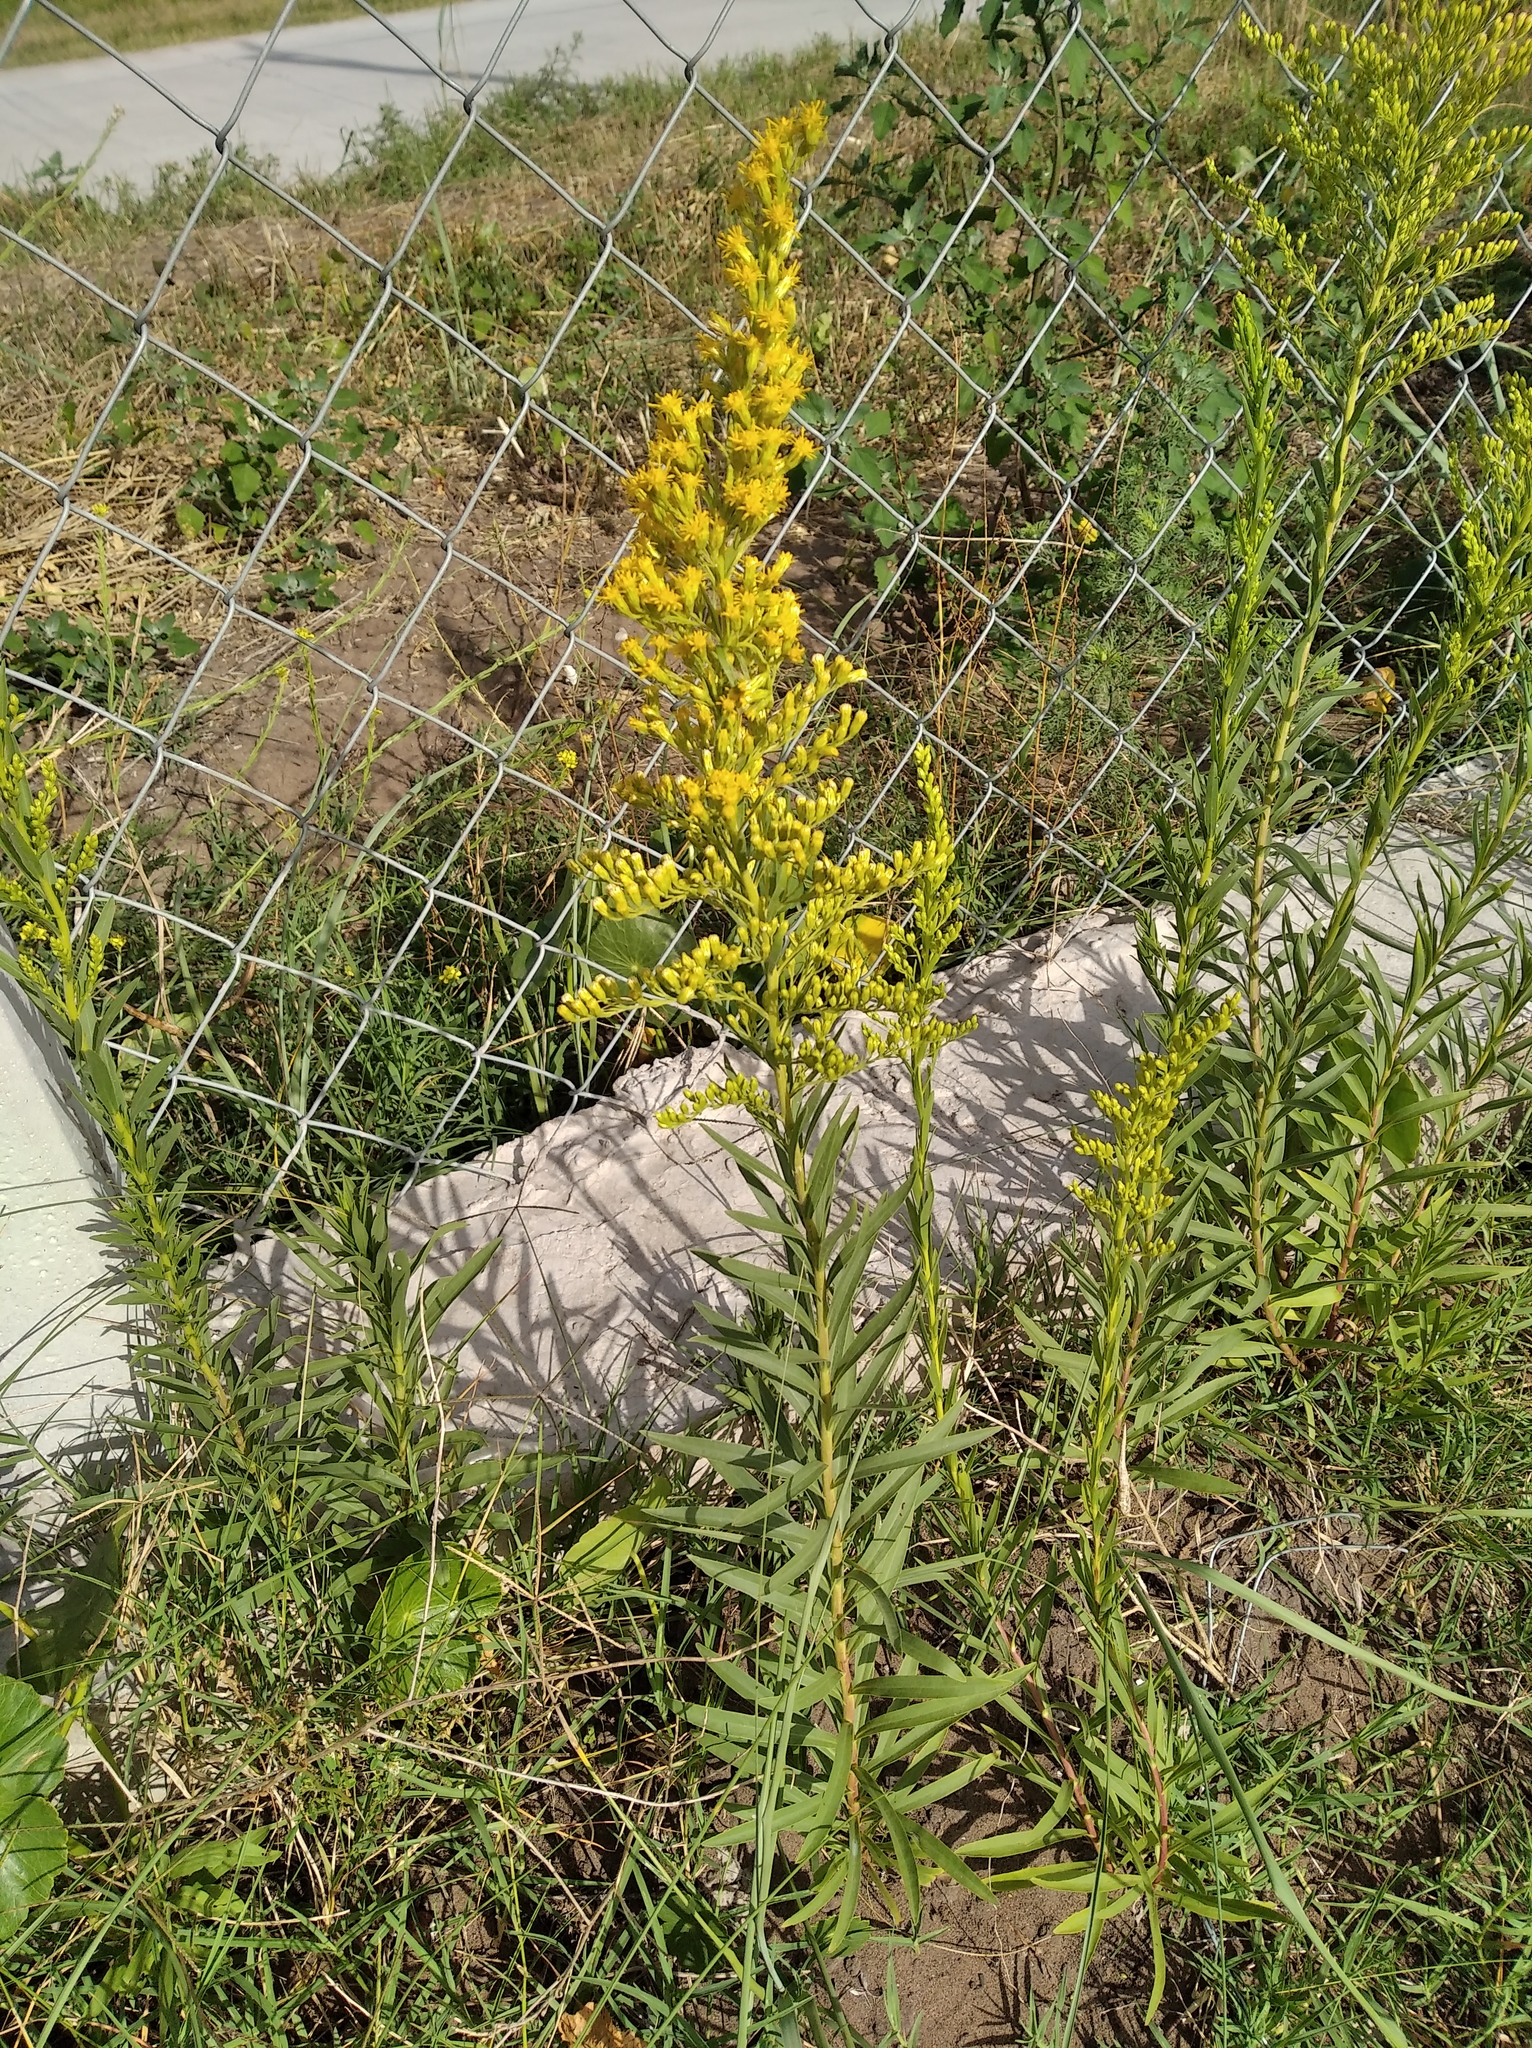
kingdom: Plantae
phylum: Tracheophyta
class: Magnoliopsida
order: Asterales
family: Asteraceae
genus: Solidago
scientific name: Solidago chilensis
